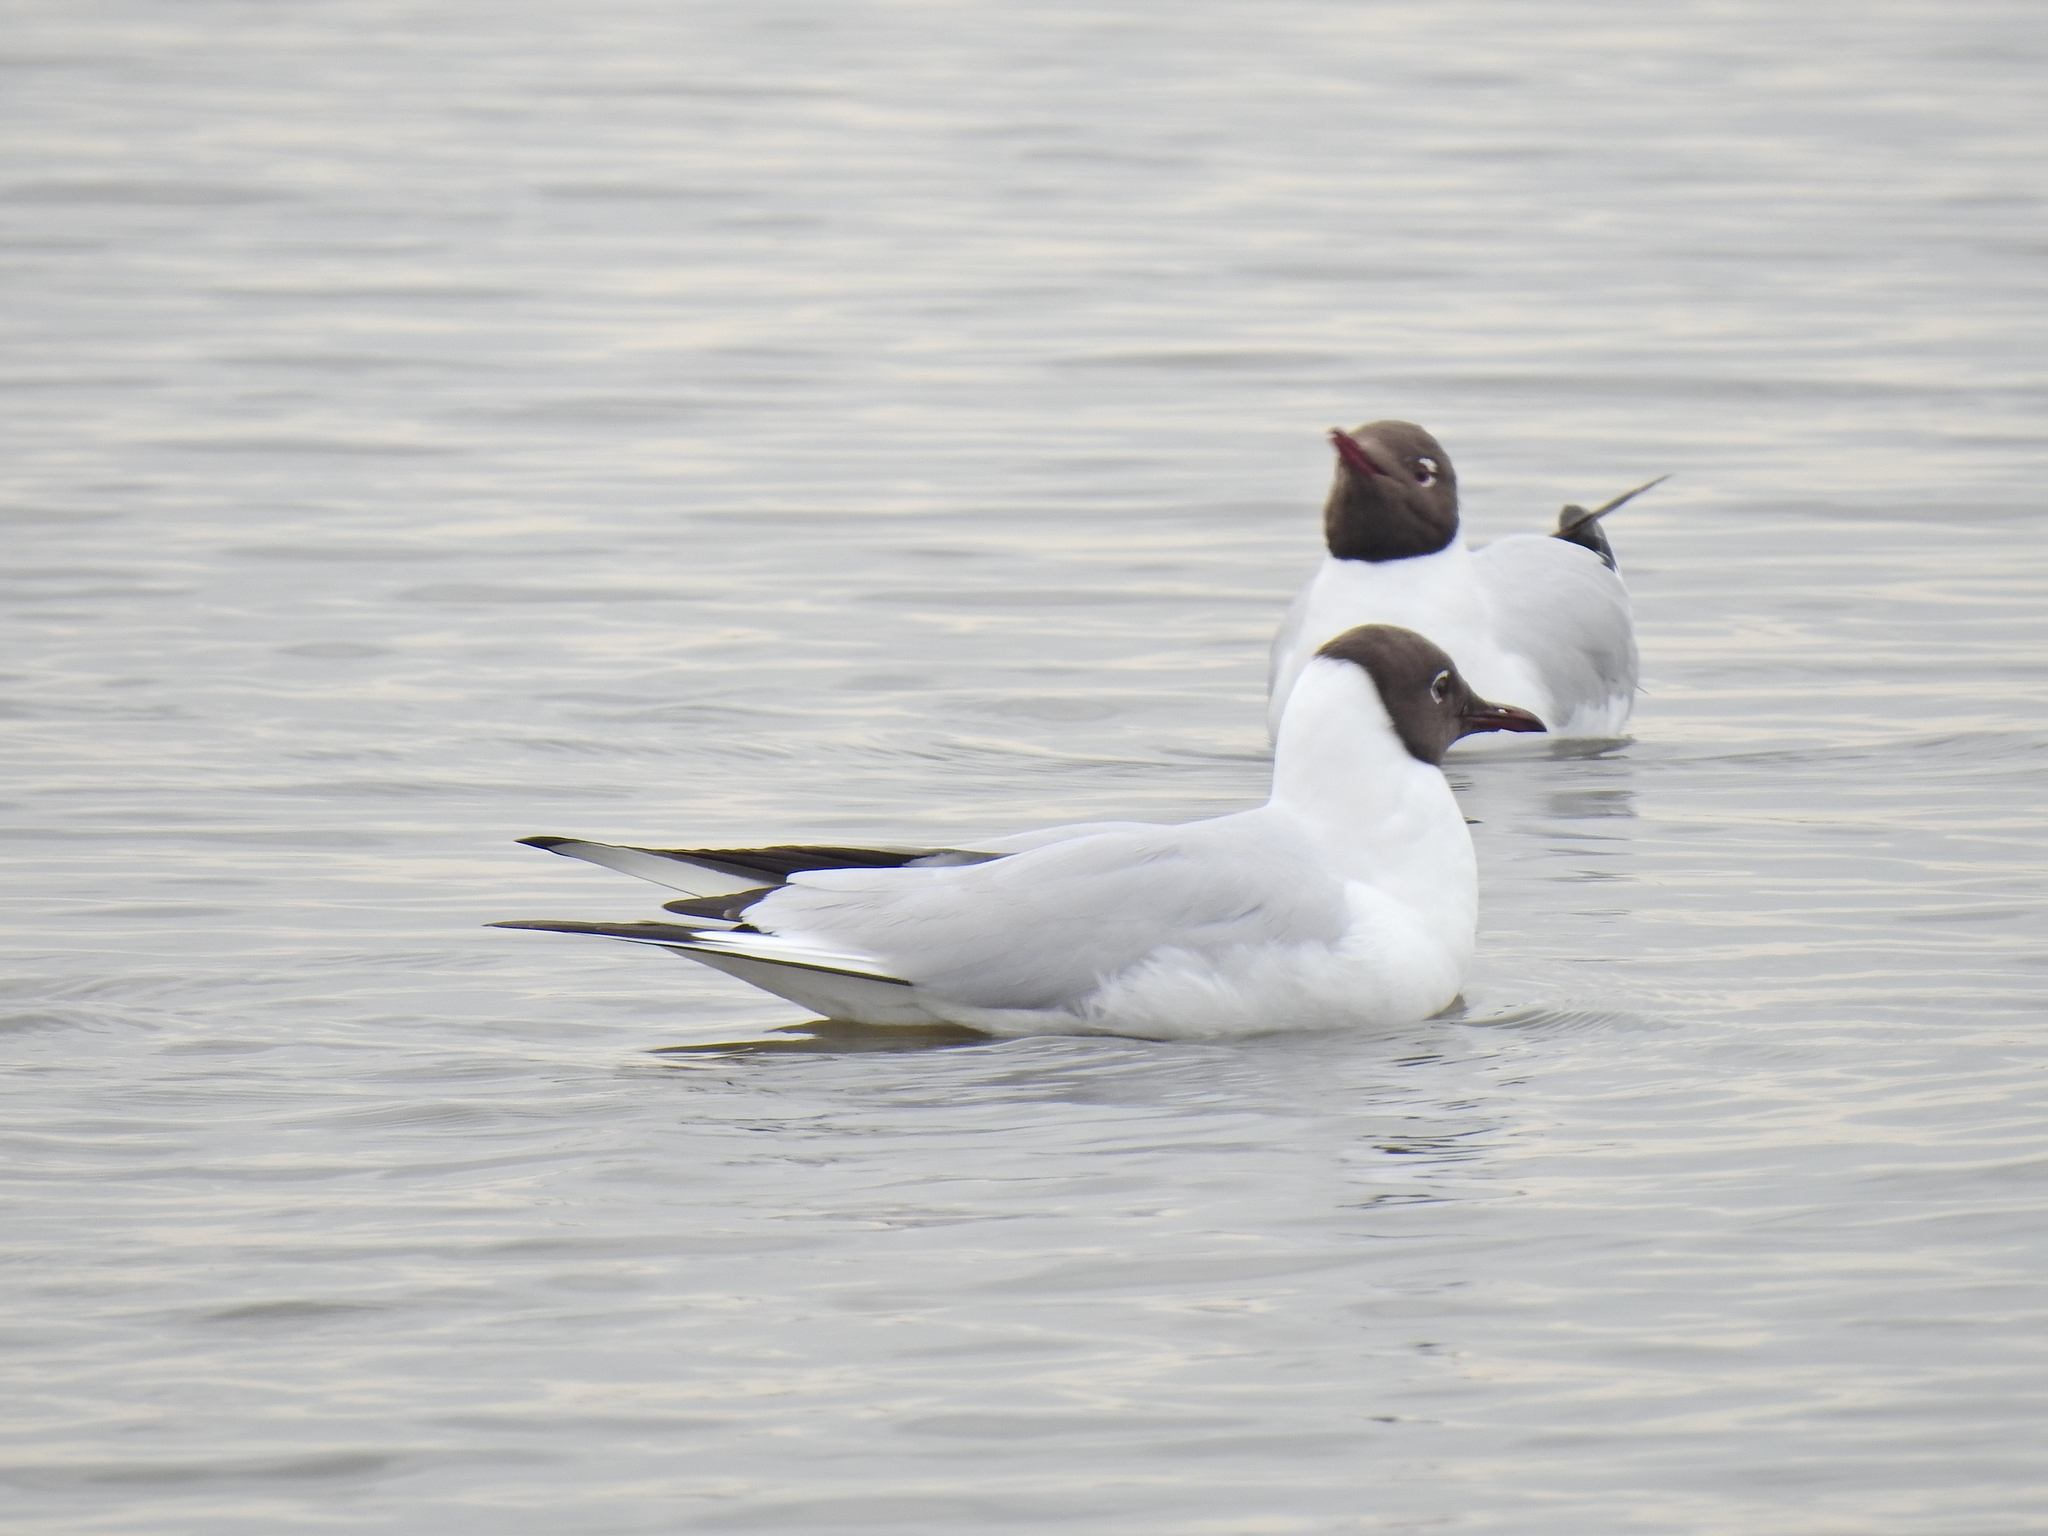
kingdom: Animalia
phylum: Chordata
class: Aves
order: Charadriiformes
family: Laridae
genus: Chroicocephalus
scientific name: Chroicocephalus ridibundus
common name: Black-headed gull
